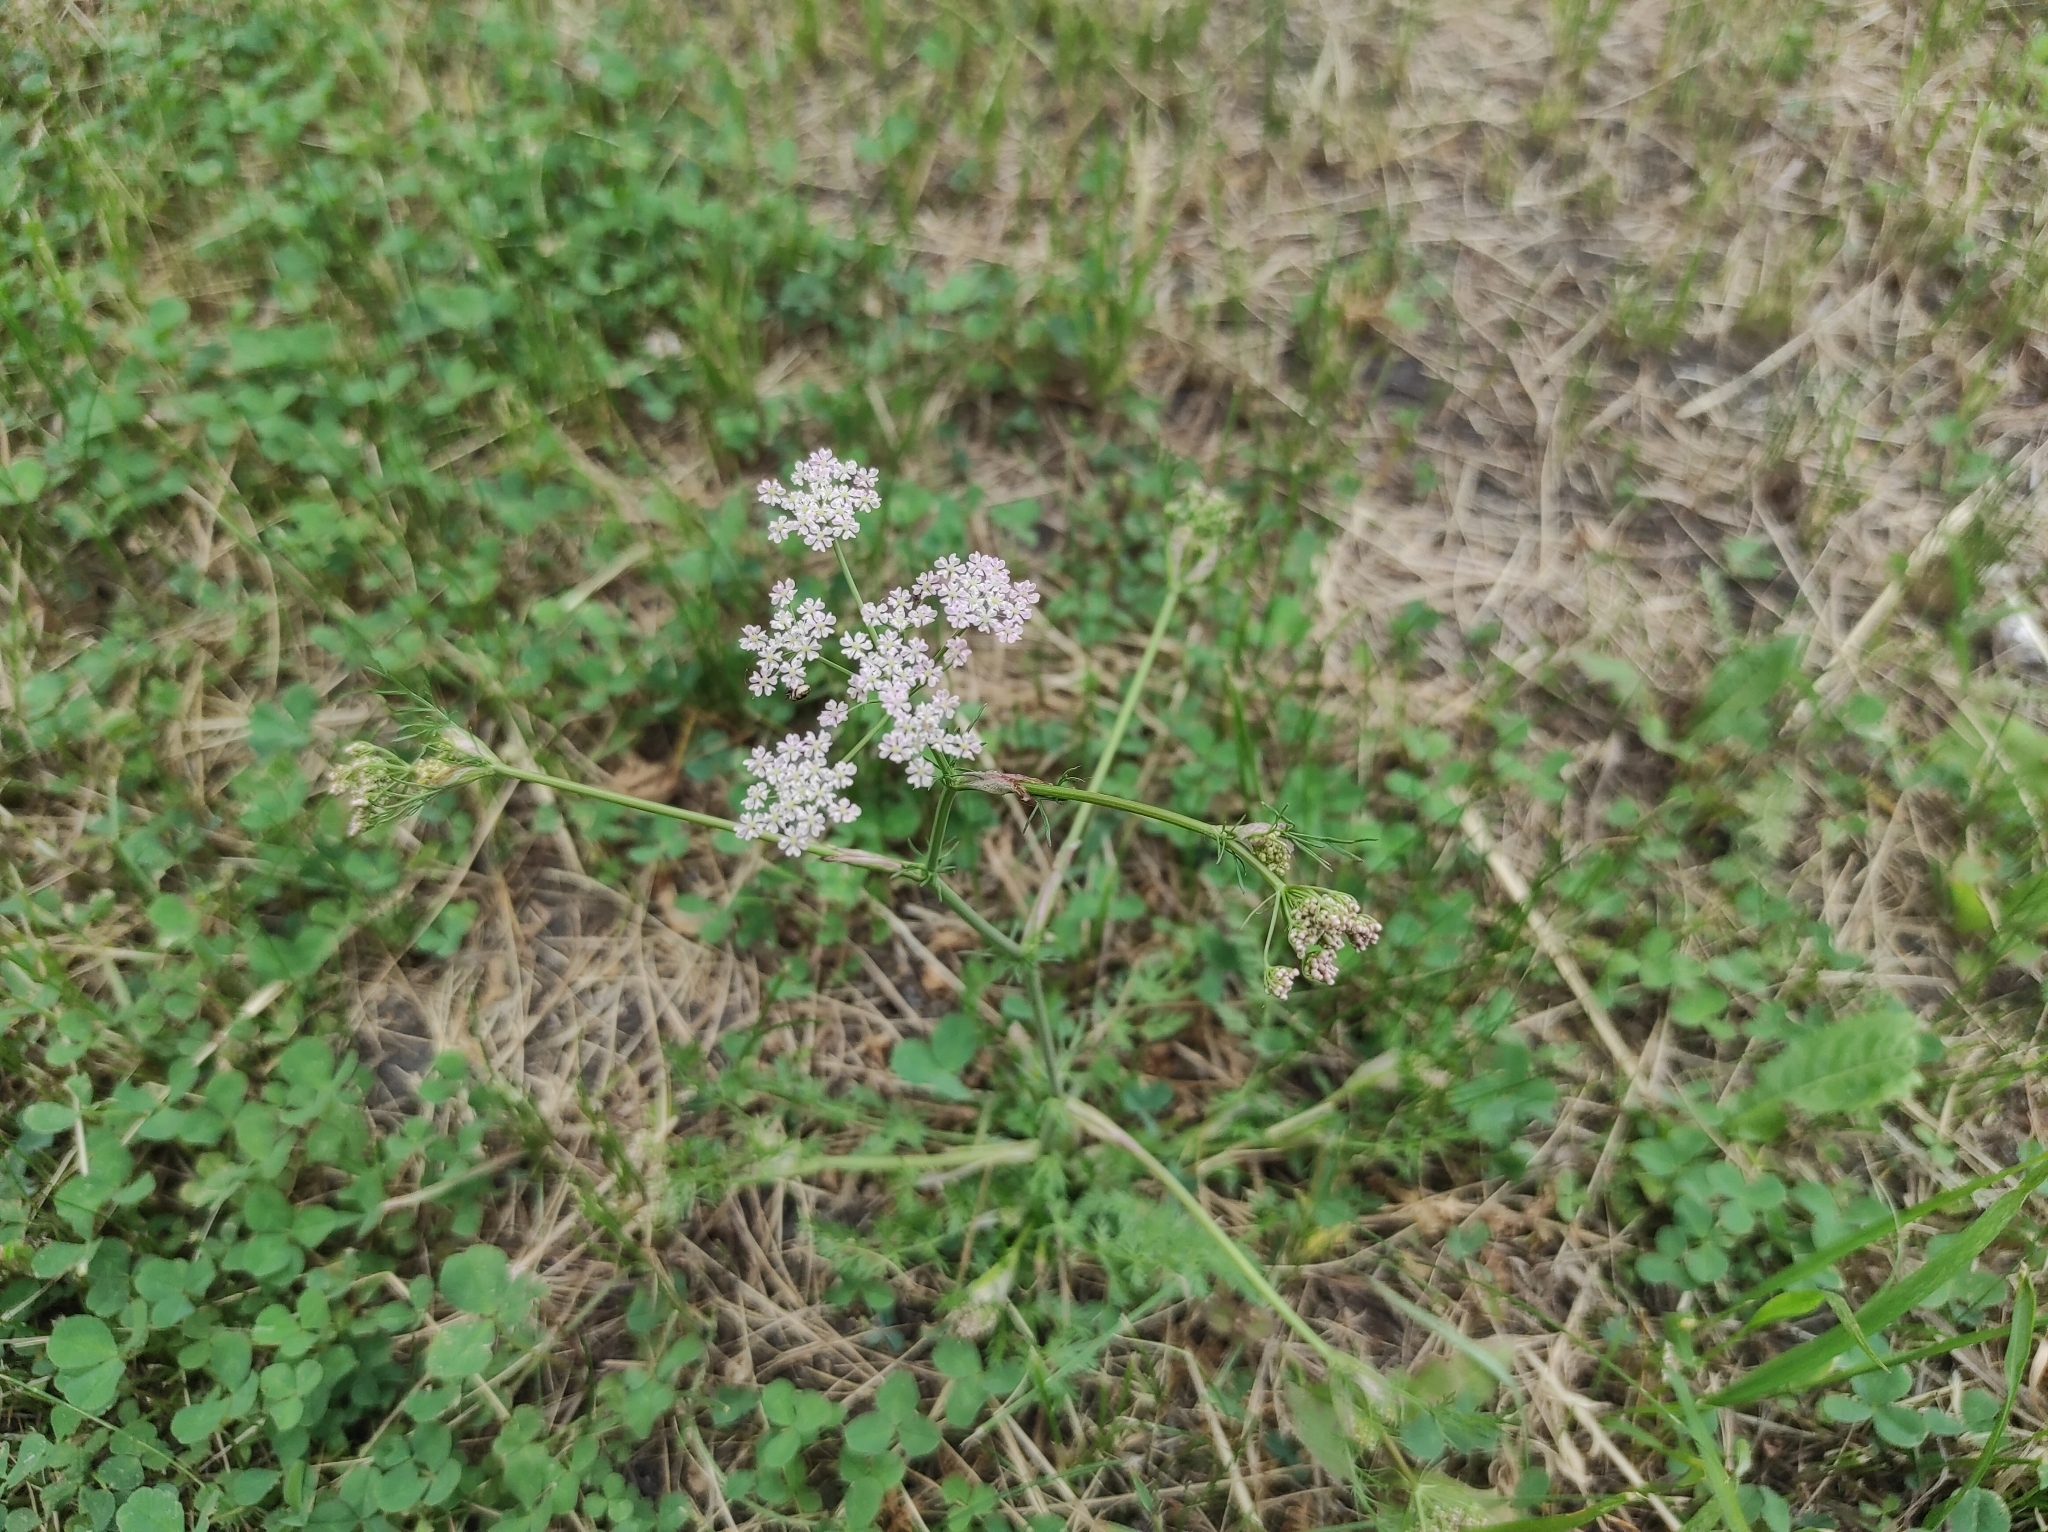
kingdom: Plantae
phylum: Tracheophyta
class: Magnoliopsida
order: Apiales
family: Apiaceae
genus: Carum
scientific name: Carum carvi
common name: Caraway
